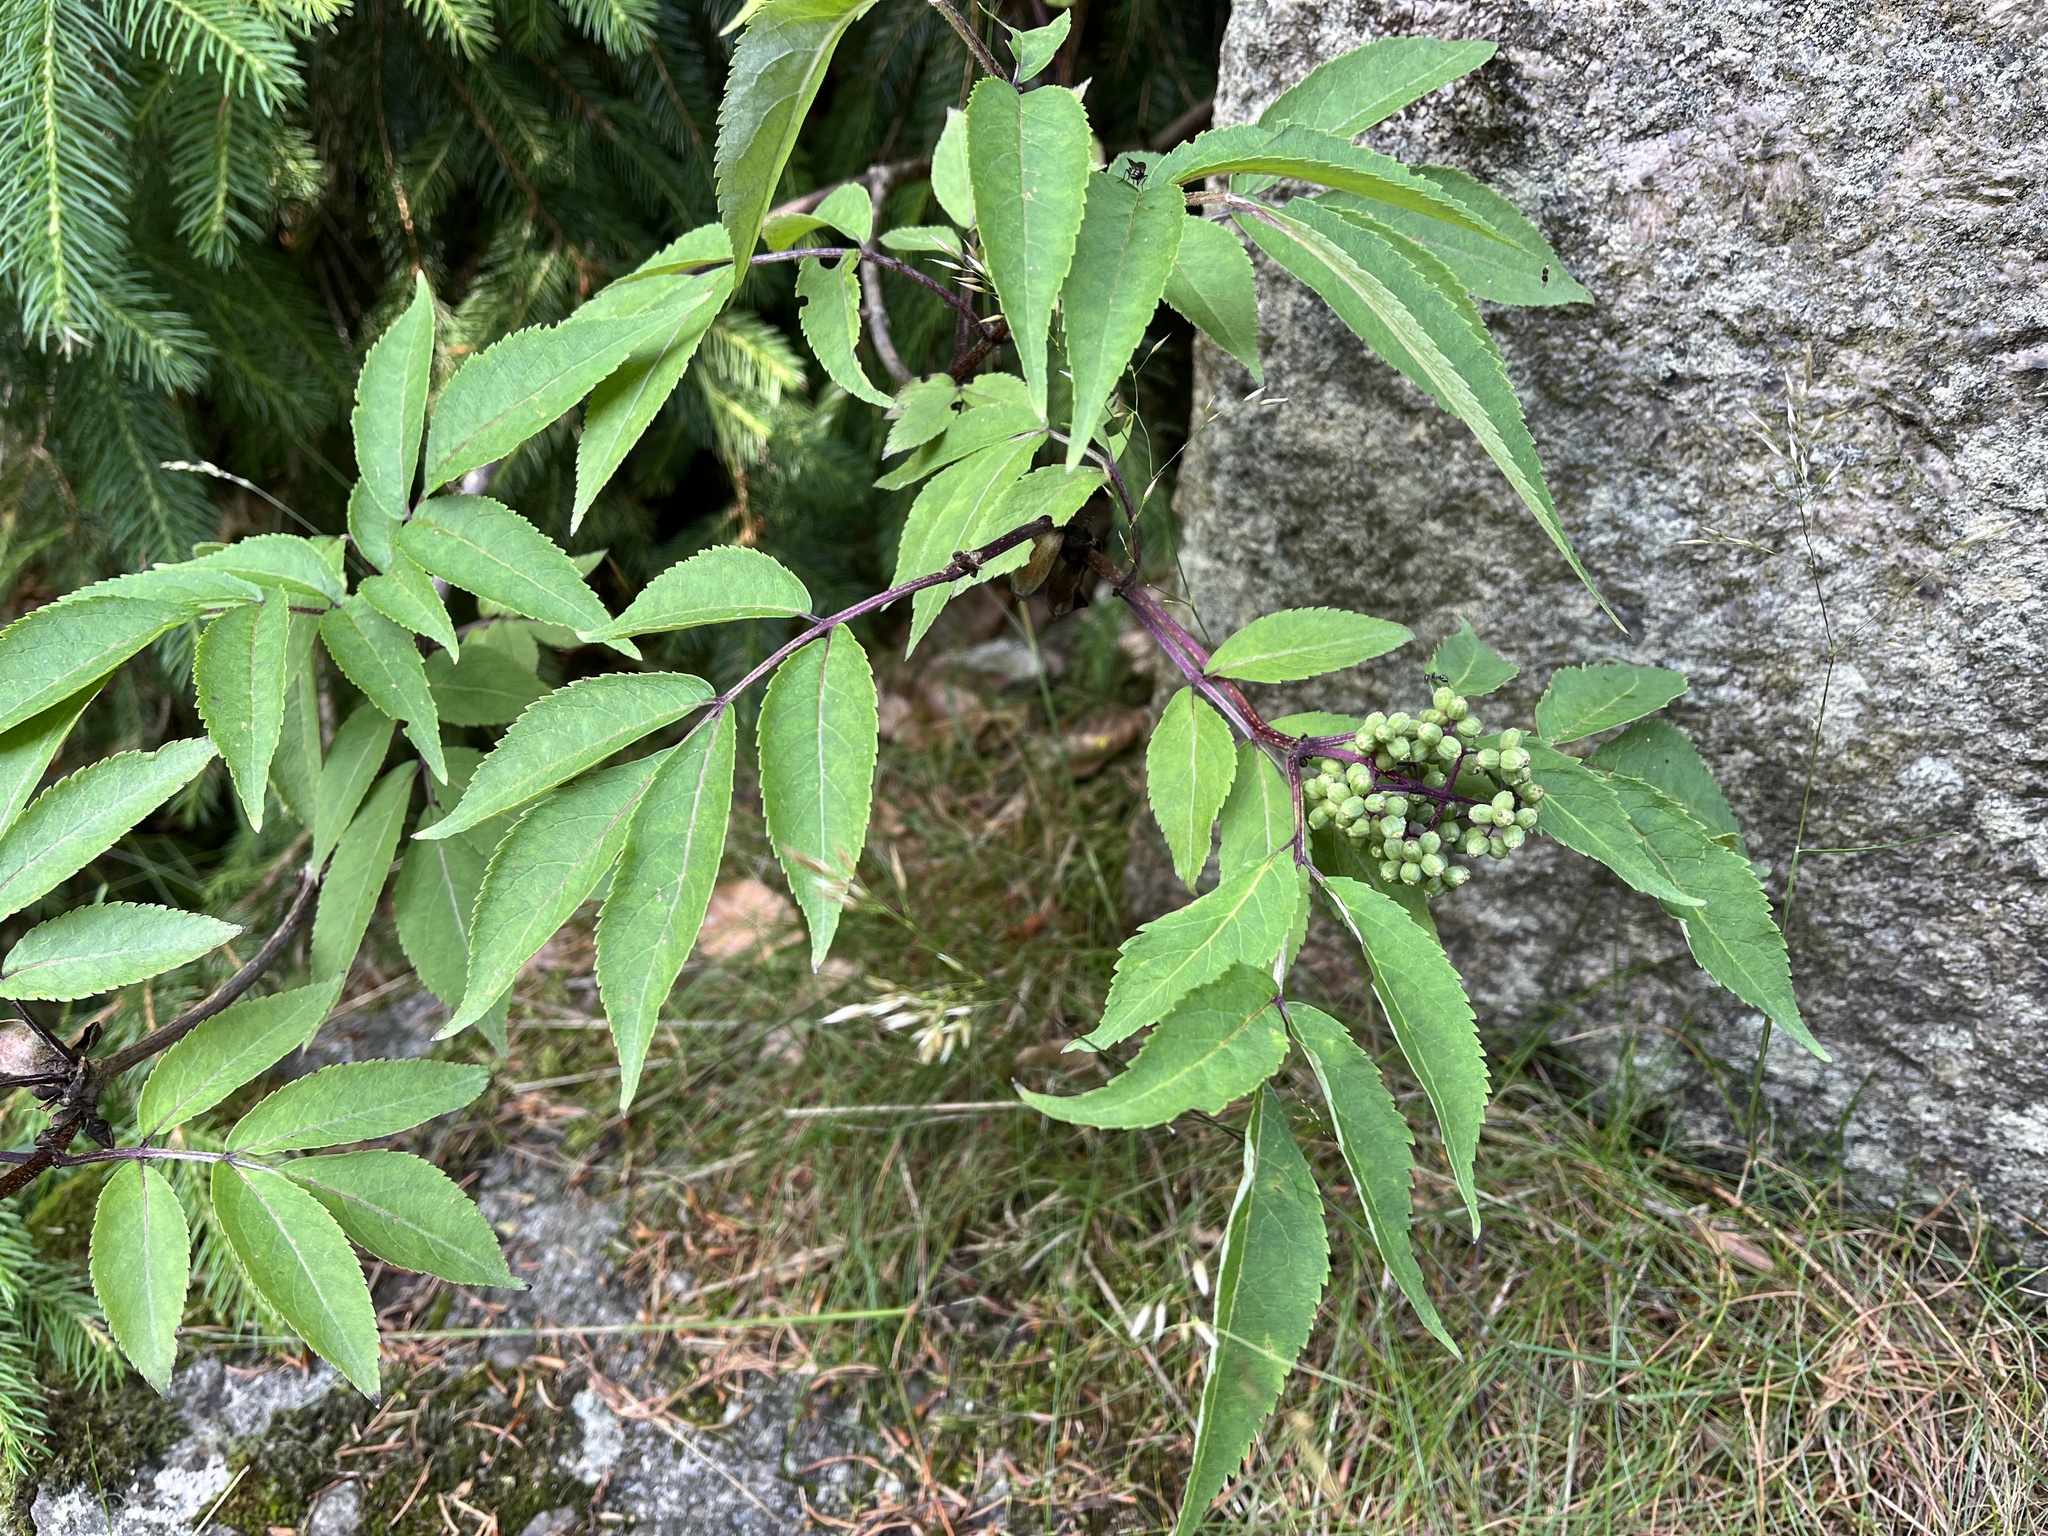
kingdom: Plantae
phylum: Tracheophyta
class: Magnoliopsida
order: Dipsacales
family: Viburnaceae
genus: Sambucus
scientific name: Sambucus racemosa
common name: Red-berried elder
